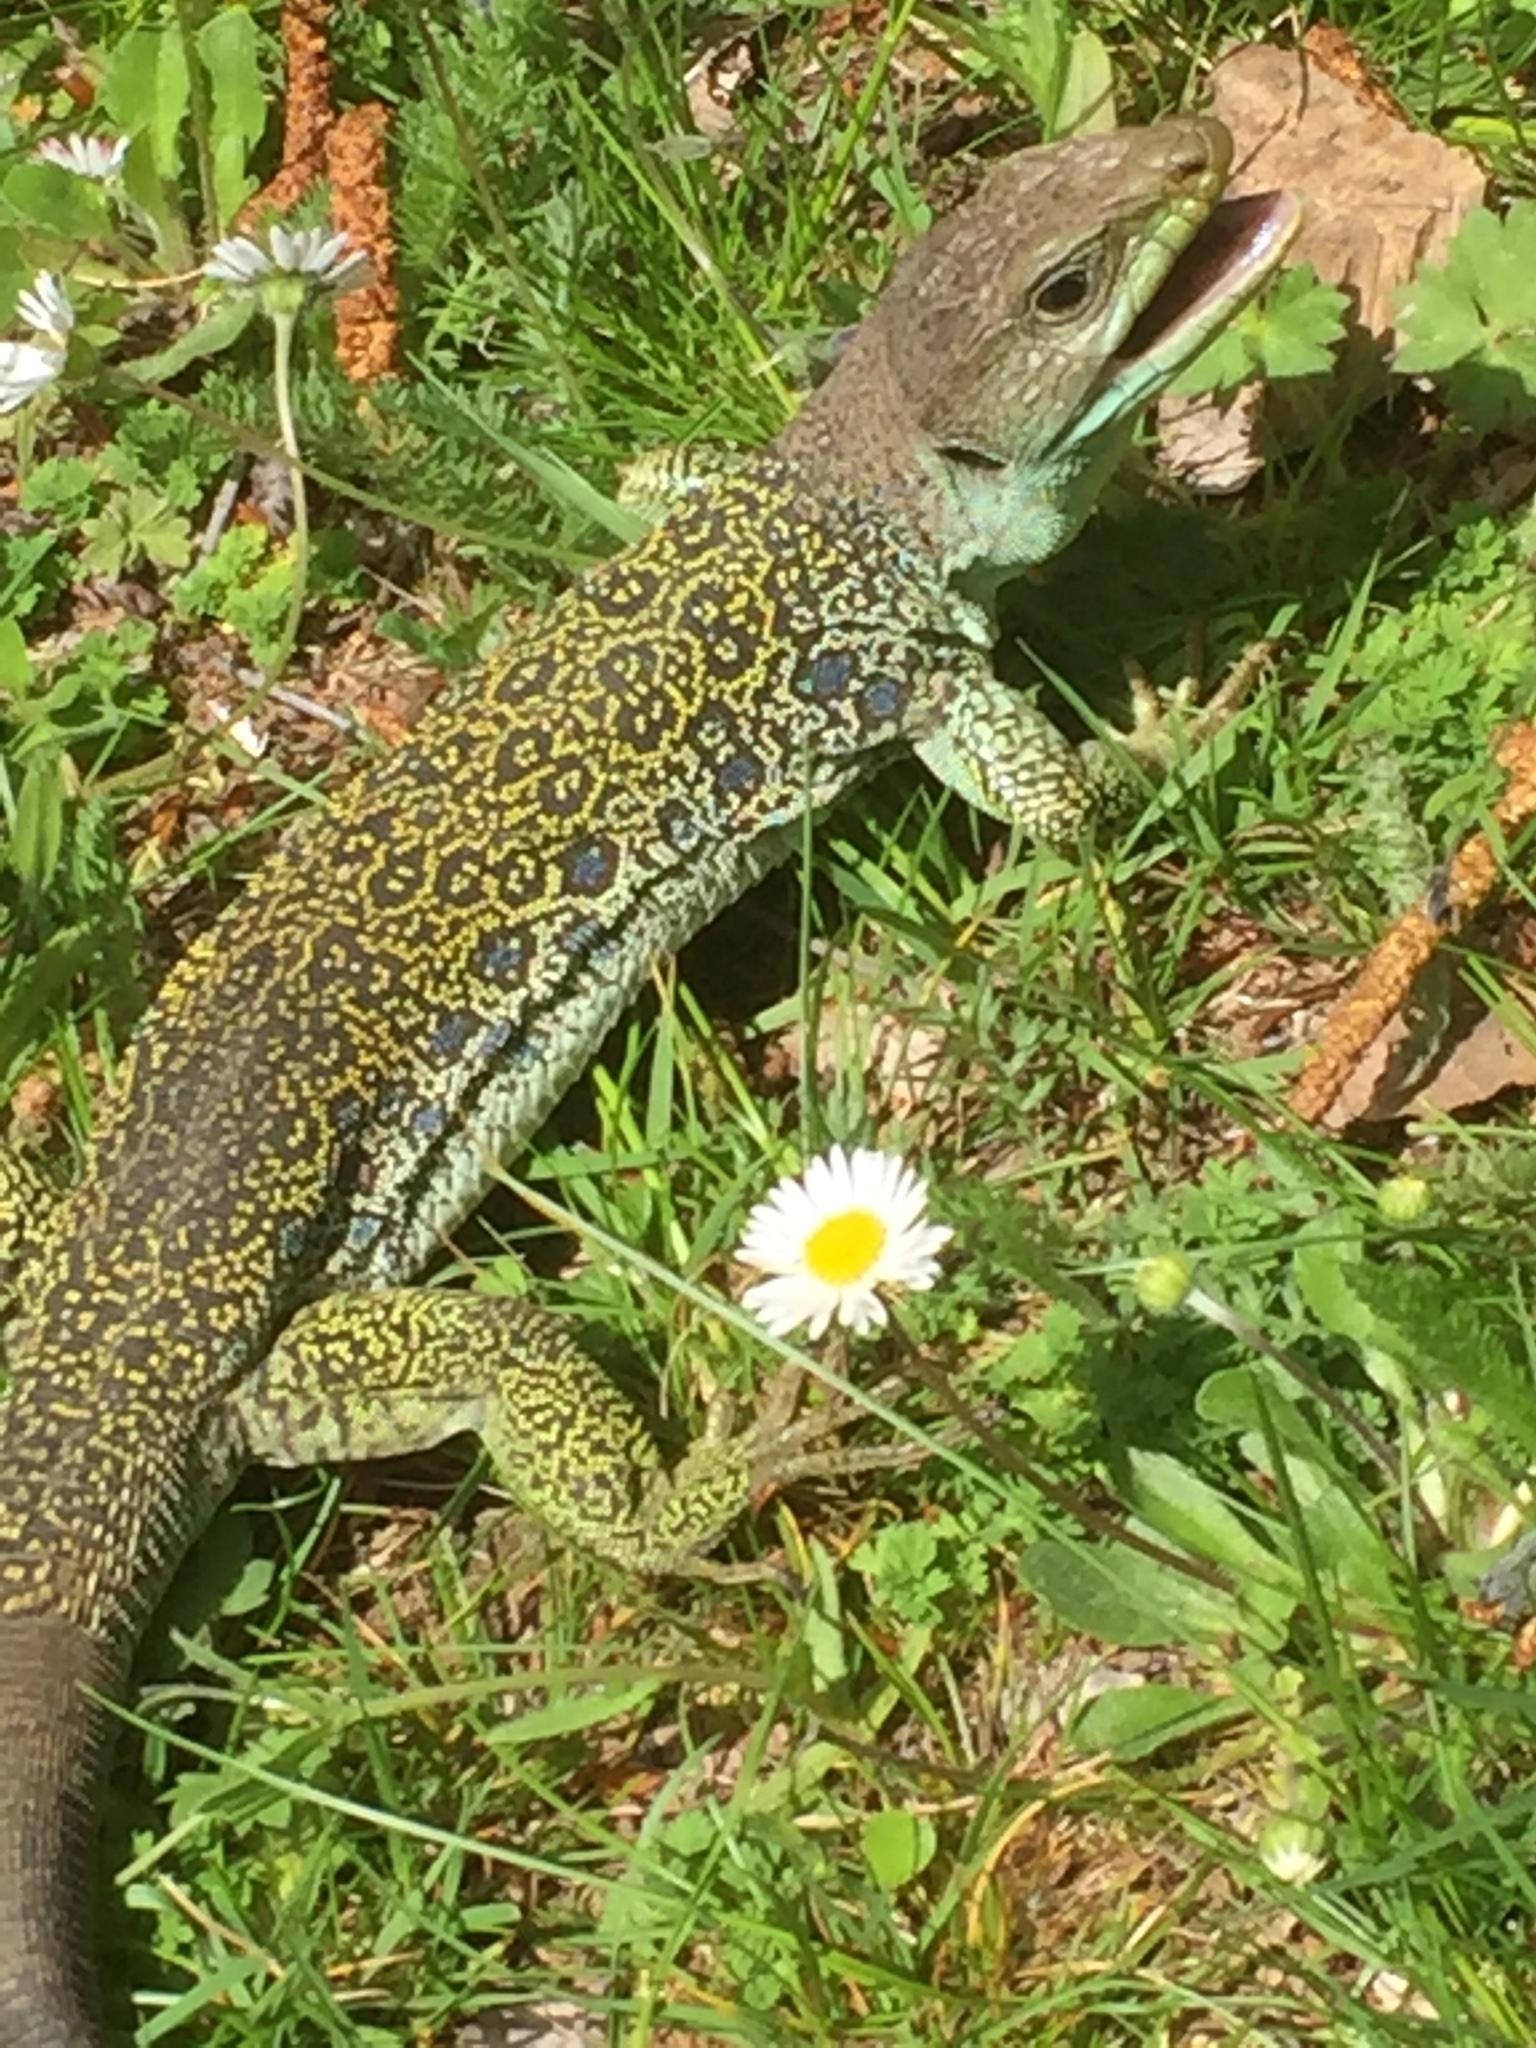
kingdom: Animalia
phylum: Chordata
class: Squamata
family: Lacertidae
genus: Timon
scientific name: Timon lepidus
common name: Ocellated lizard
